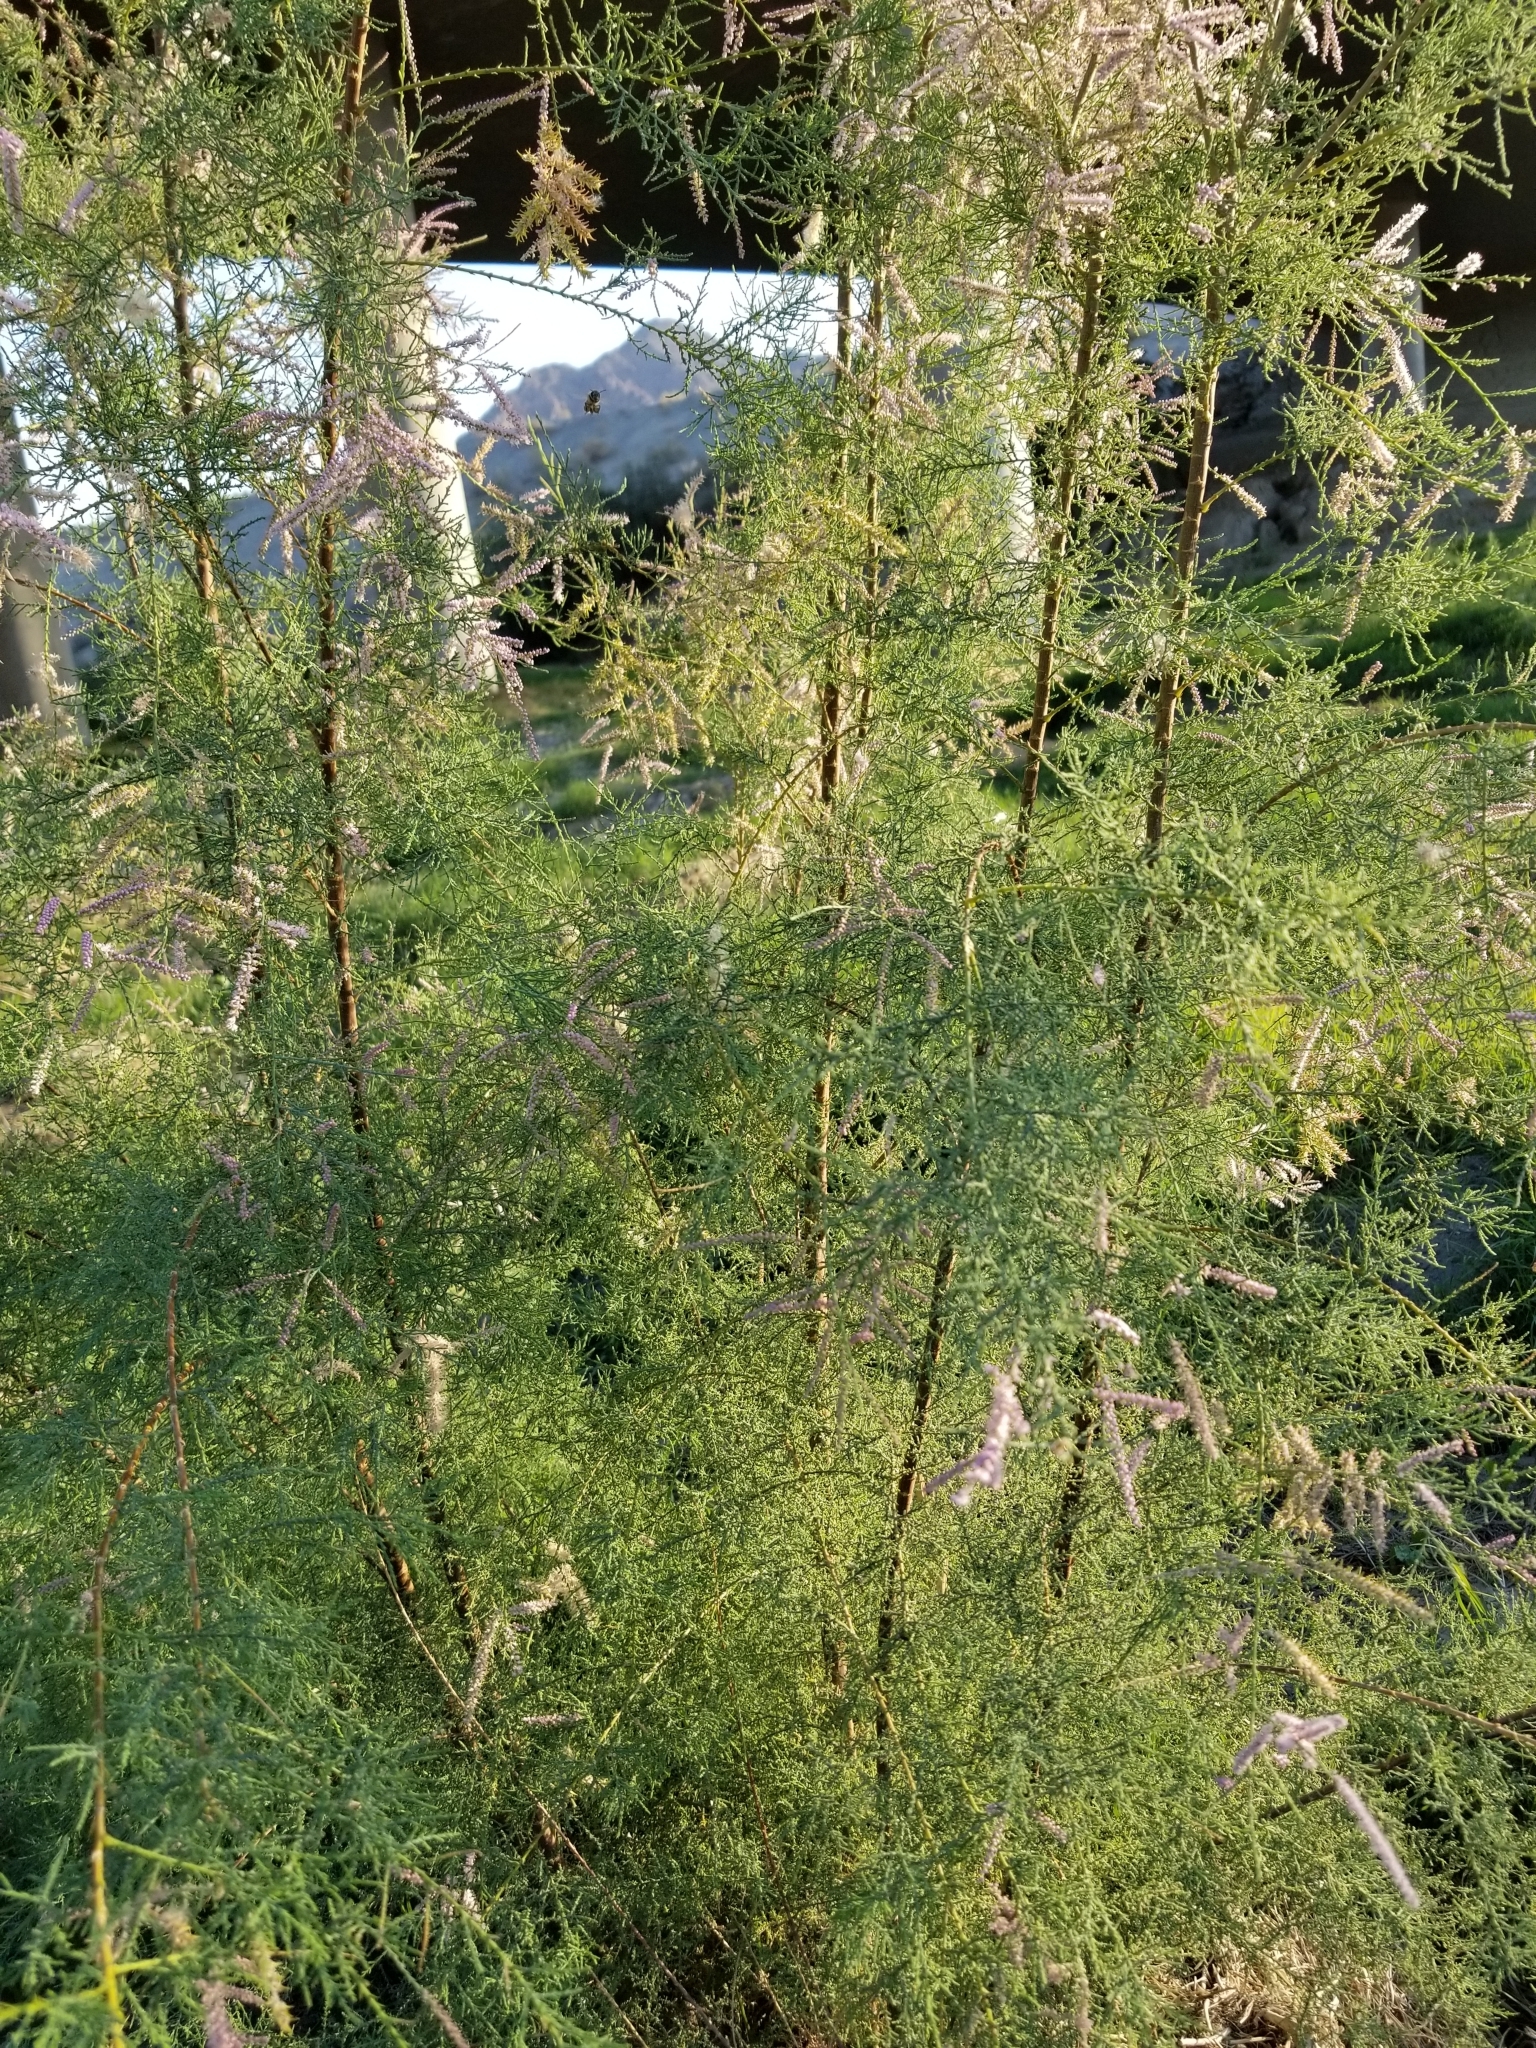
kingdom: Plantae
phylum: Tracheophyta
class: Magnoliopsida
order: Caryophyllales
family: Tamaricaceae
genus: Tamarix
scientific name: Tamarix ramosissima
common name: Pink tamarisk
